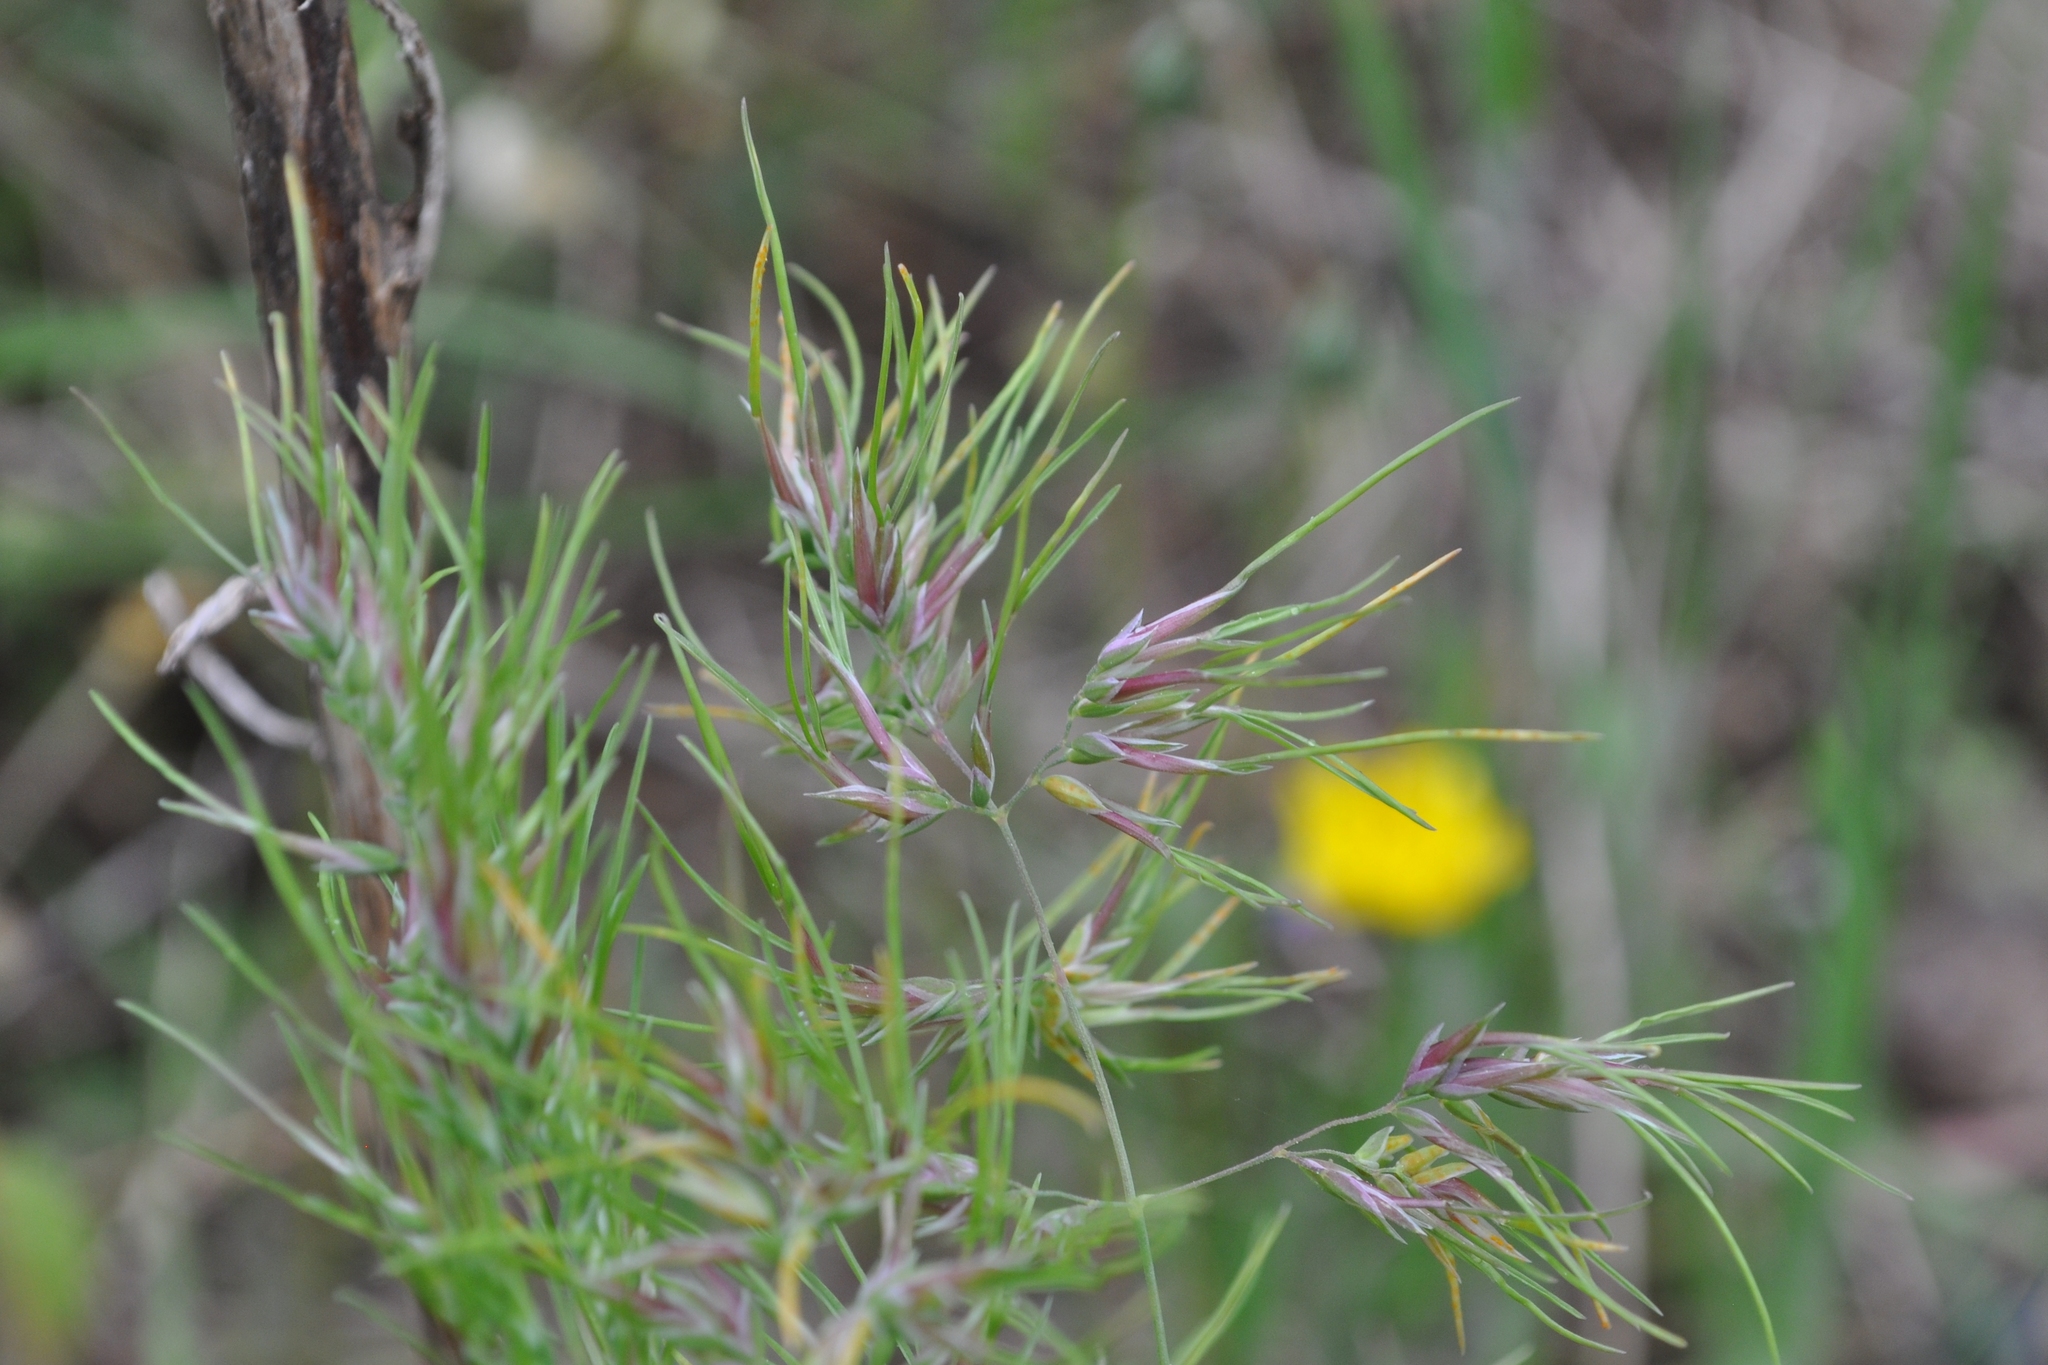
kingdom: Plantae
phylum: Tracheophyta
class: Liliopsida
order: Poales
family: Poaceae
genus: Poa
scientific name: Poa bulbosa
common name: Bulbous bluegrass
